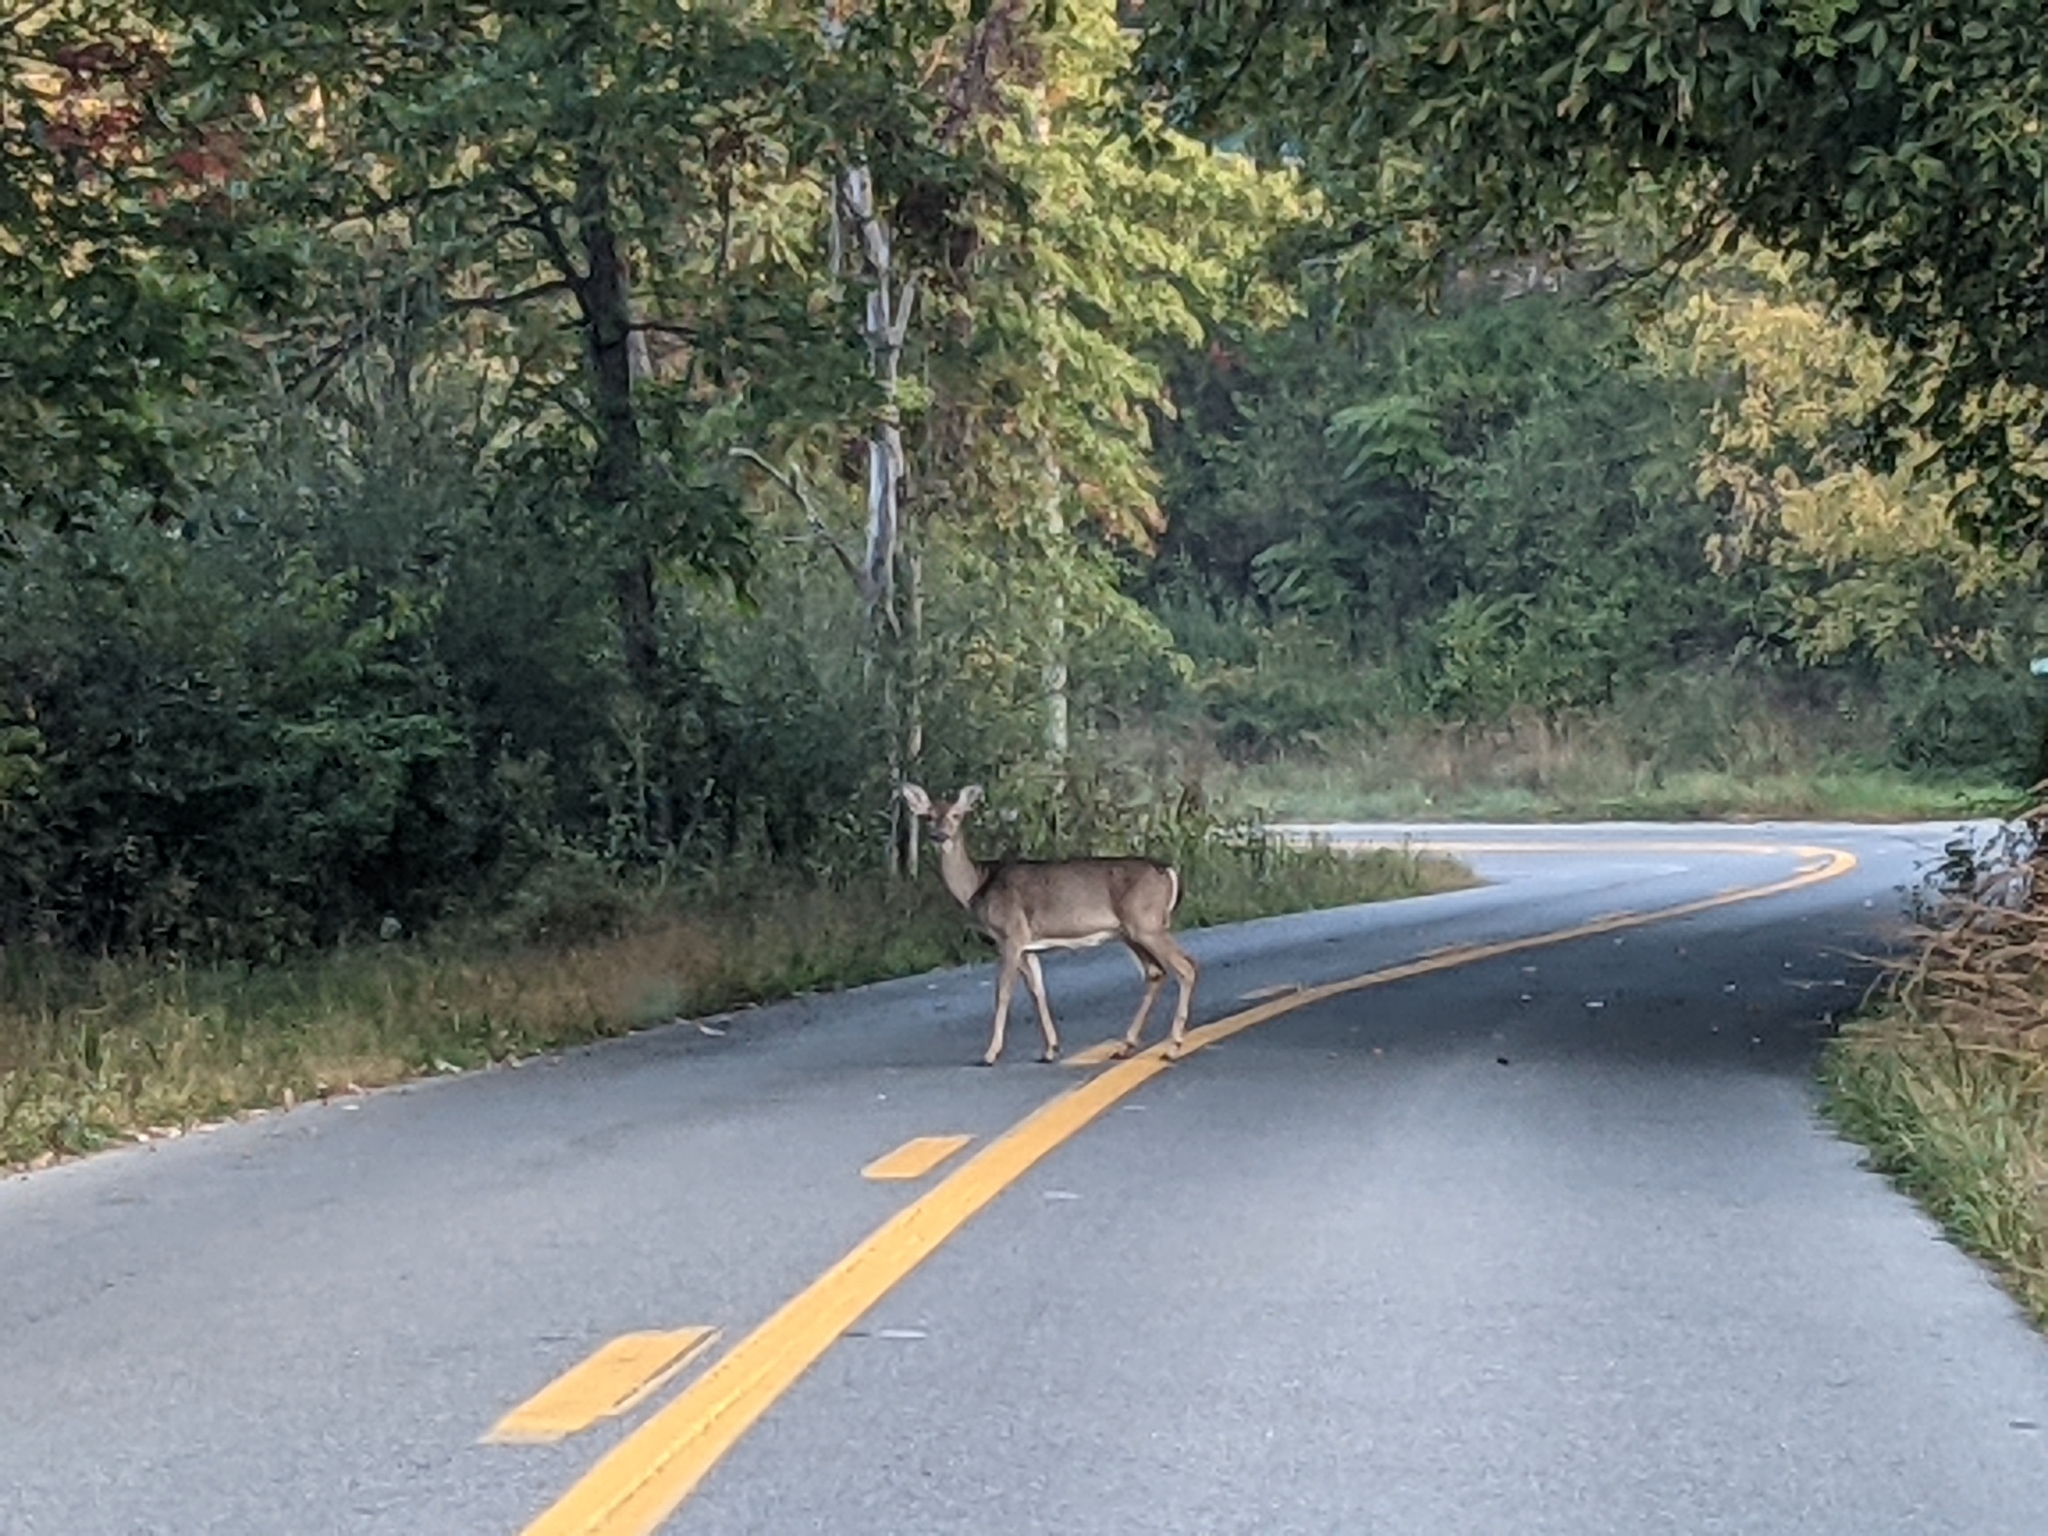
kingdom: Animalia
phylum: Chordata
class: Mammalia
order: Artiodactyla
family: Cervidae
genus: Odocoileus
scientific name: Odocoileus virginianus
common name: White-tailed deer
